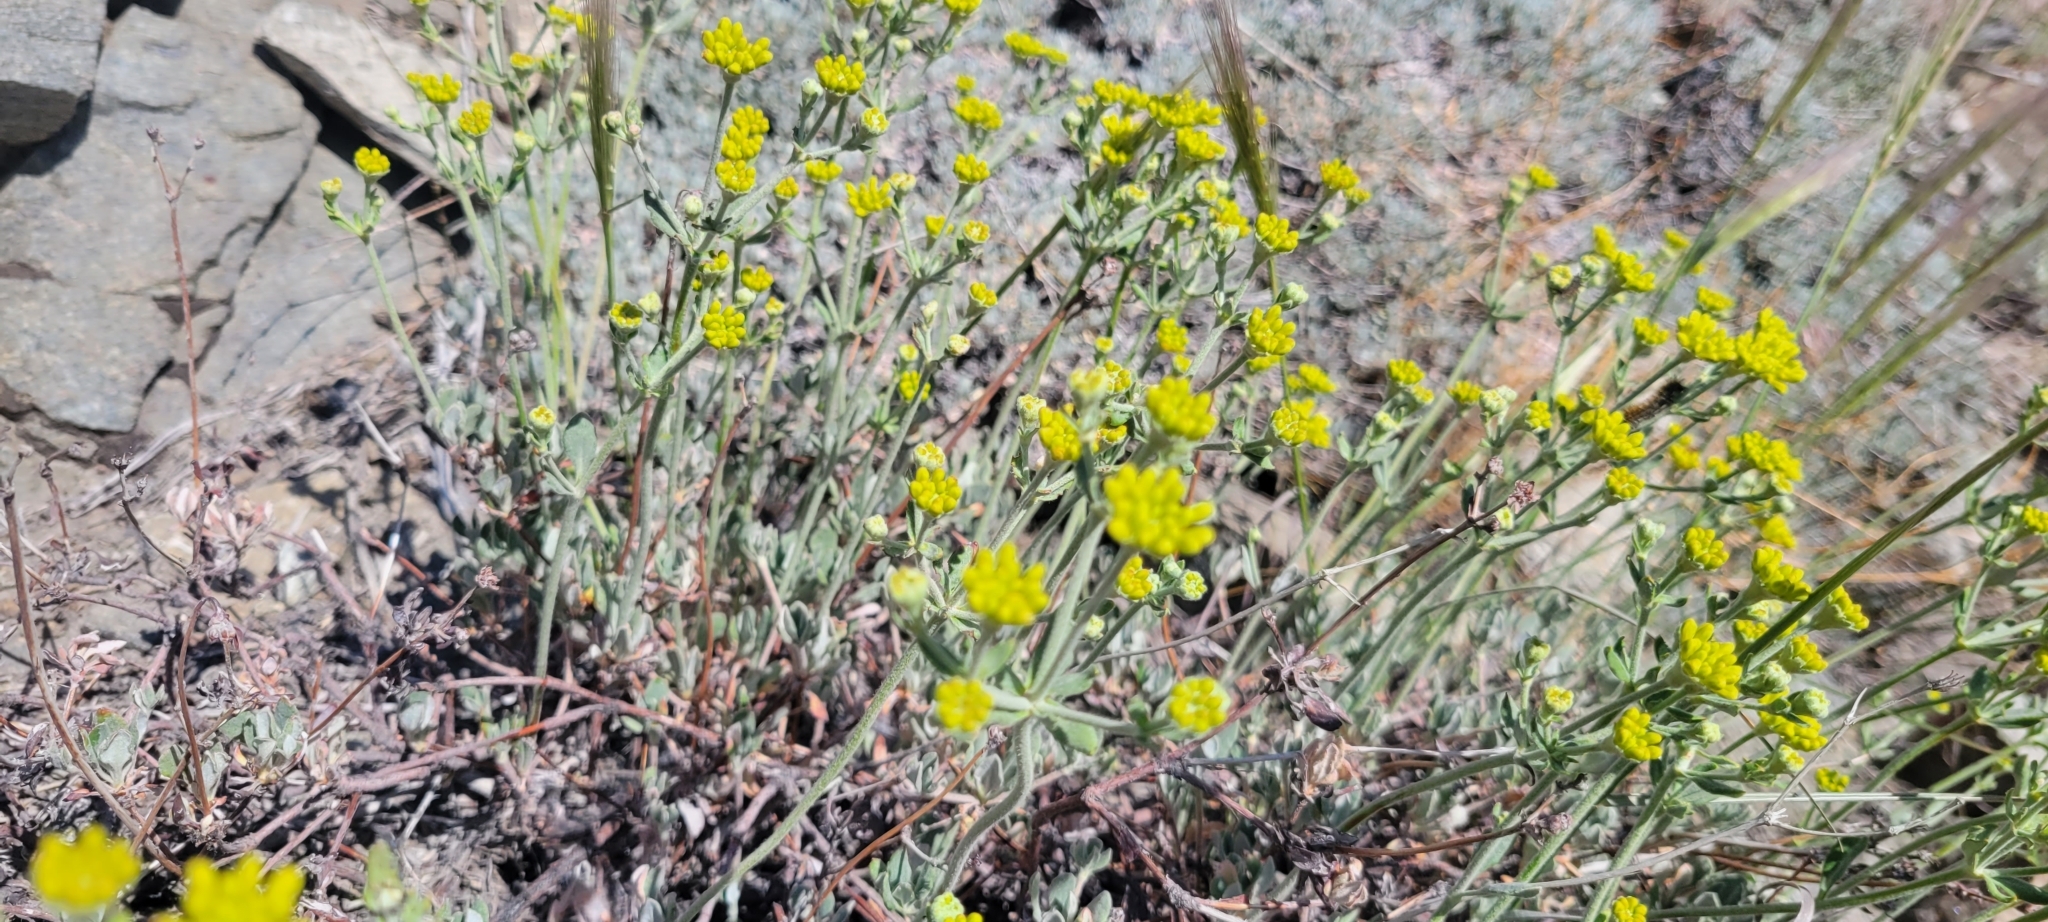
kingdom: Plantae
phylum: Tracheophyta
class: Magnoliopsida
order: Caryophyllales
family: Polygonaceae
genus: Eriogonum
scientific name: Eriogonum umbellatum
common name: Sulfur-buckwheat
